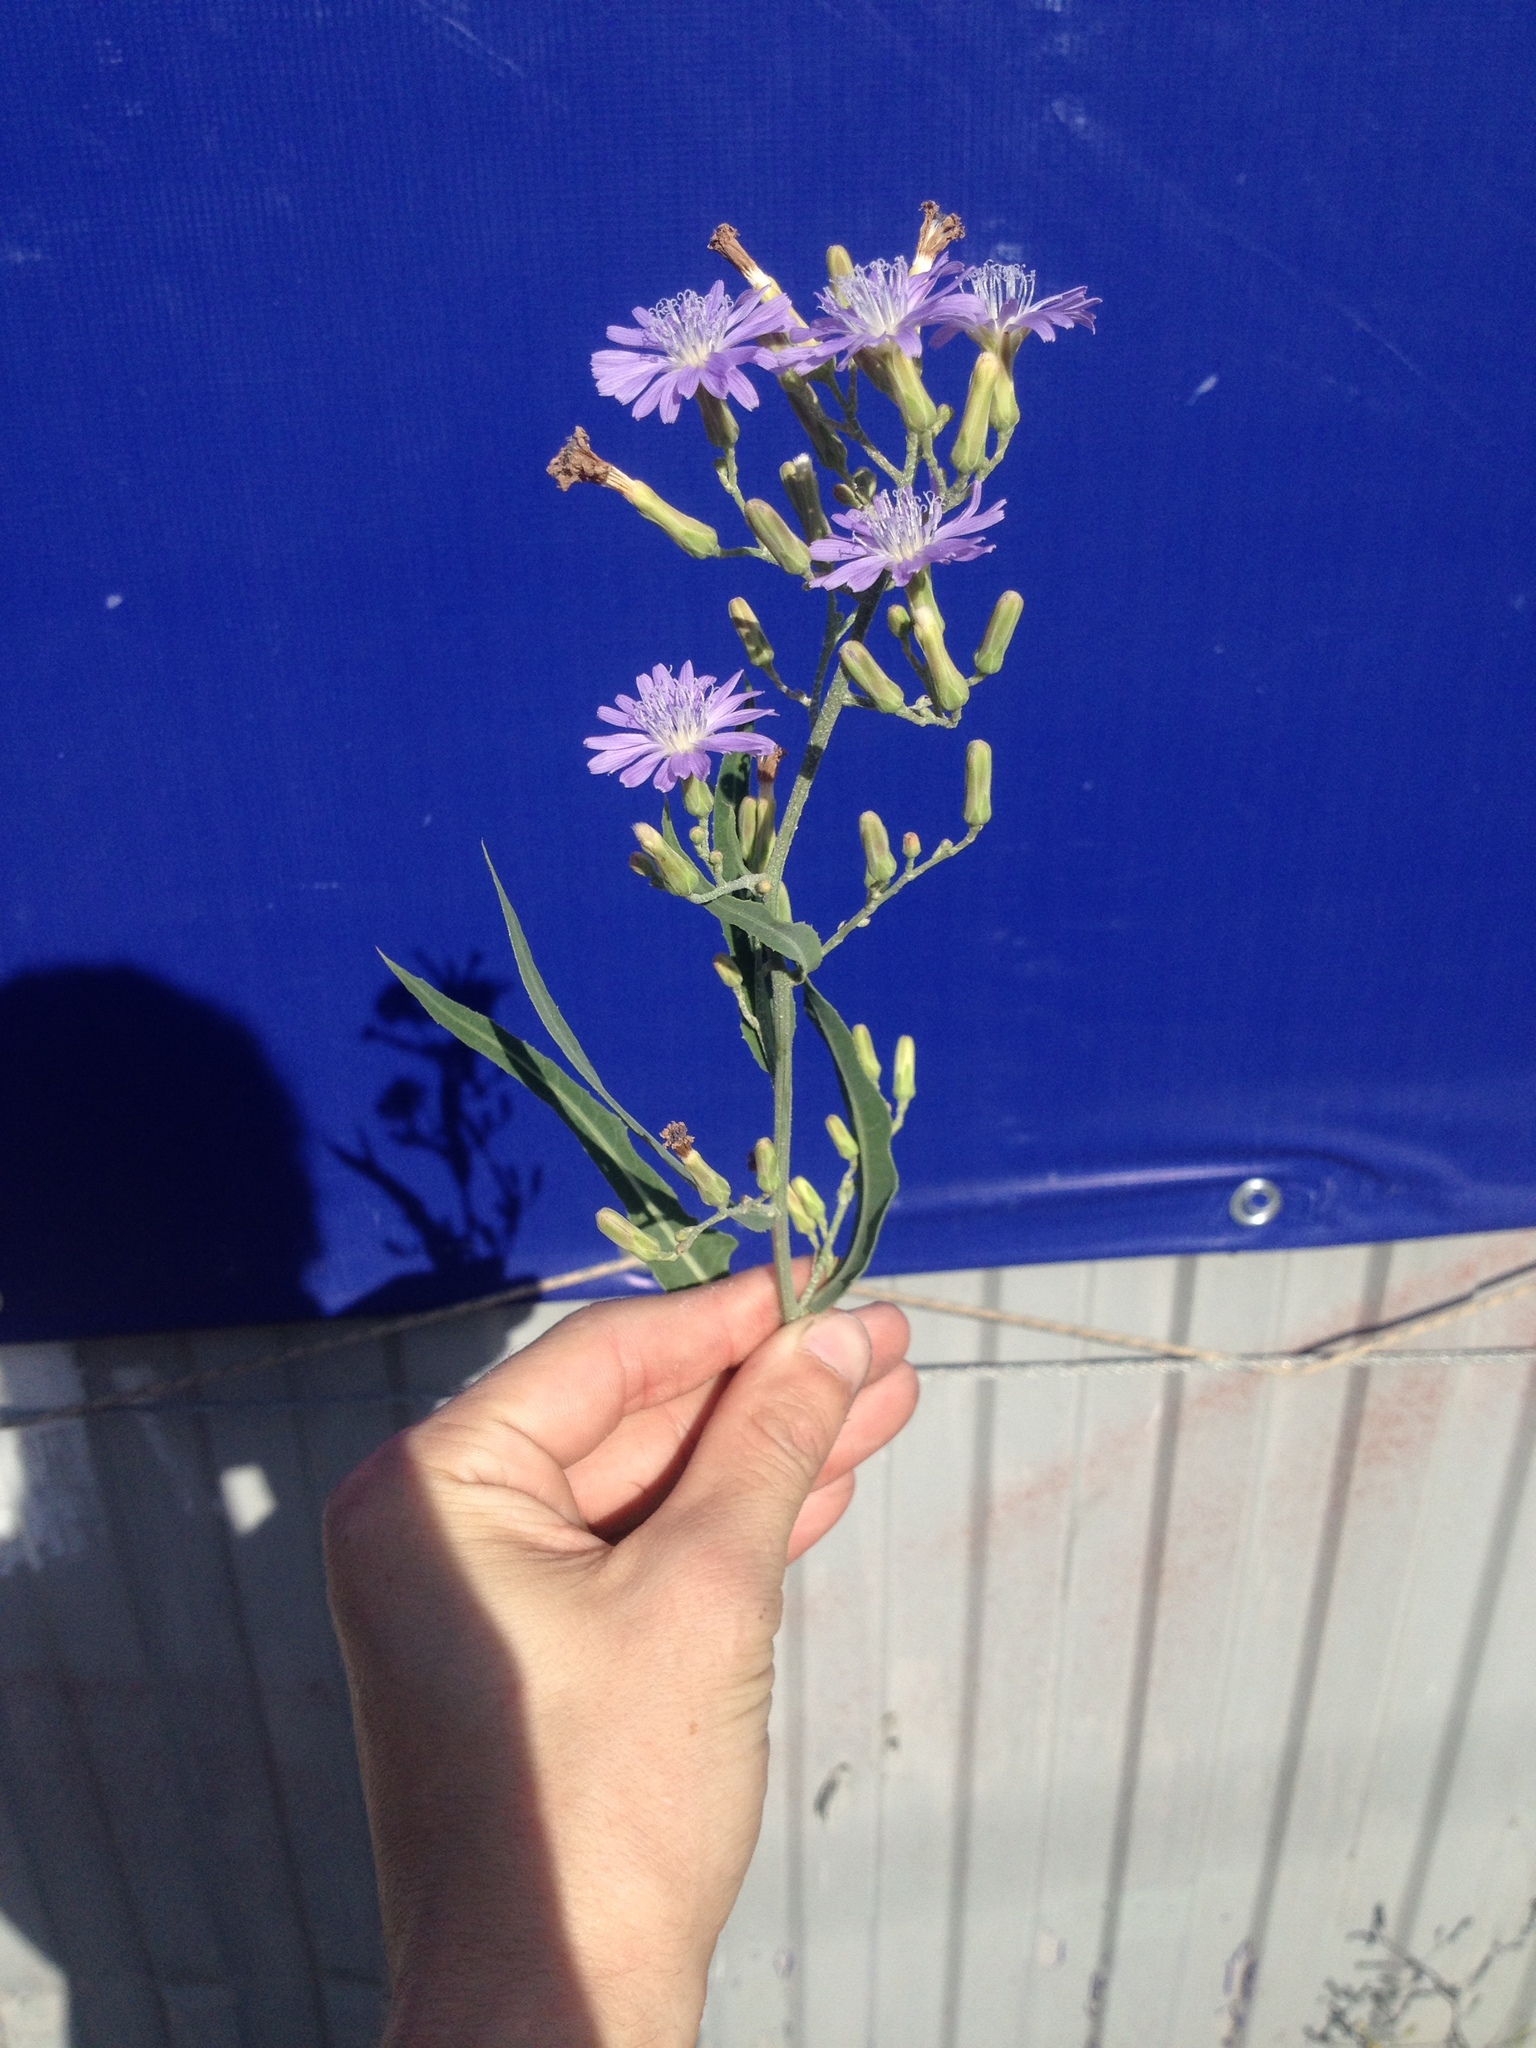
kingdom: Plantae
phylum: Tracheophyta
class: Magnoliopsida
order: Asterales
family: Asteraceae
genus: Lactuca
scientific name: Lactuca tatarica
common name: Blue lettuce
